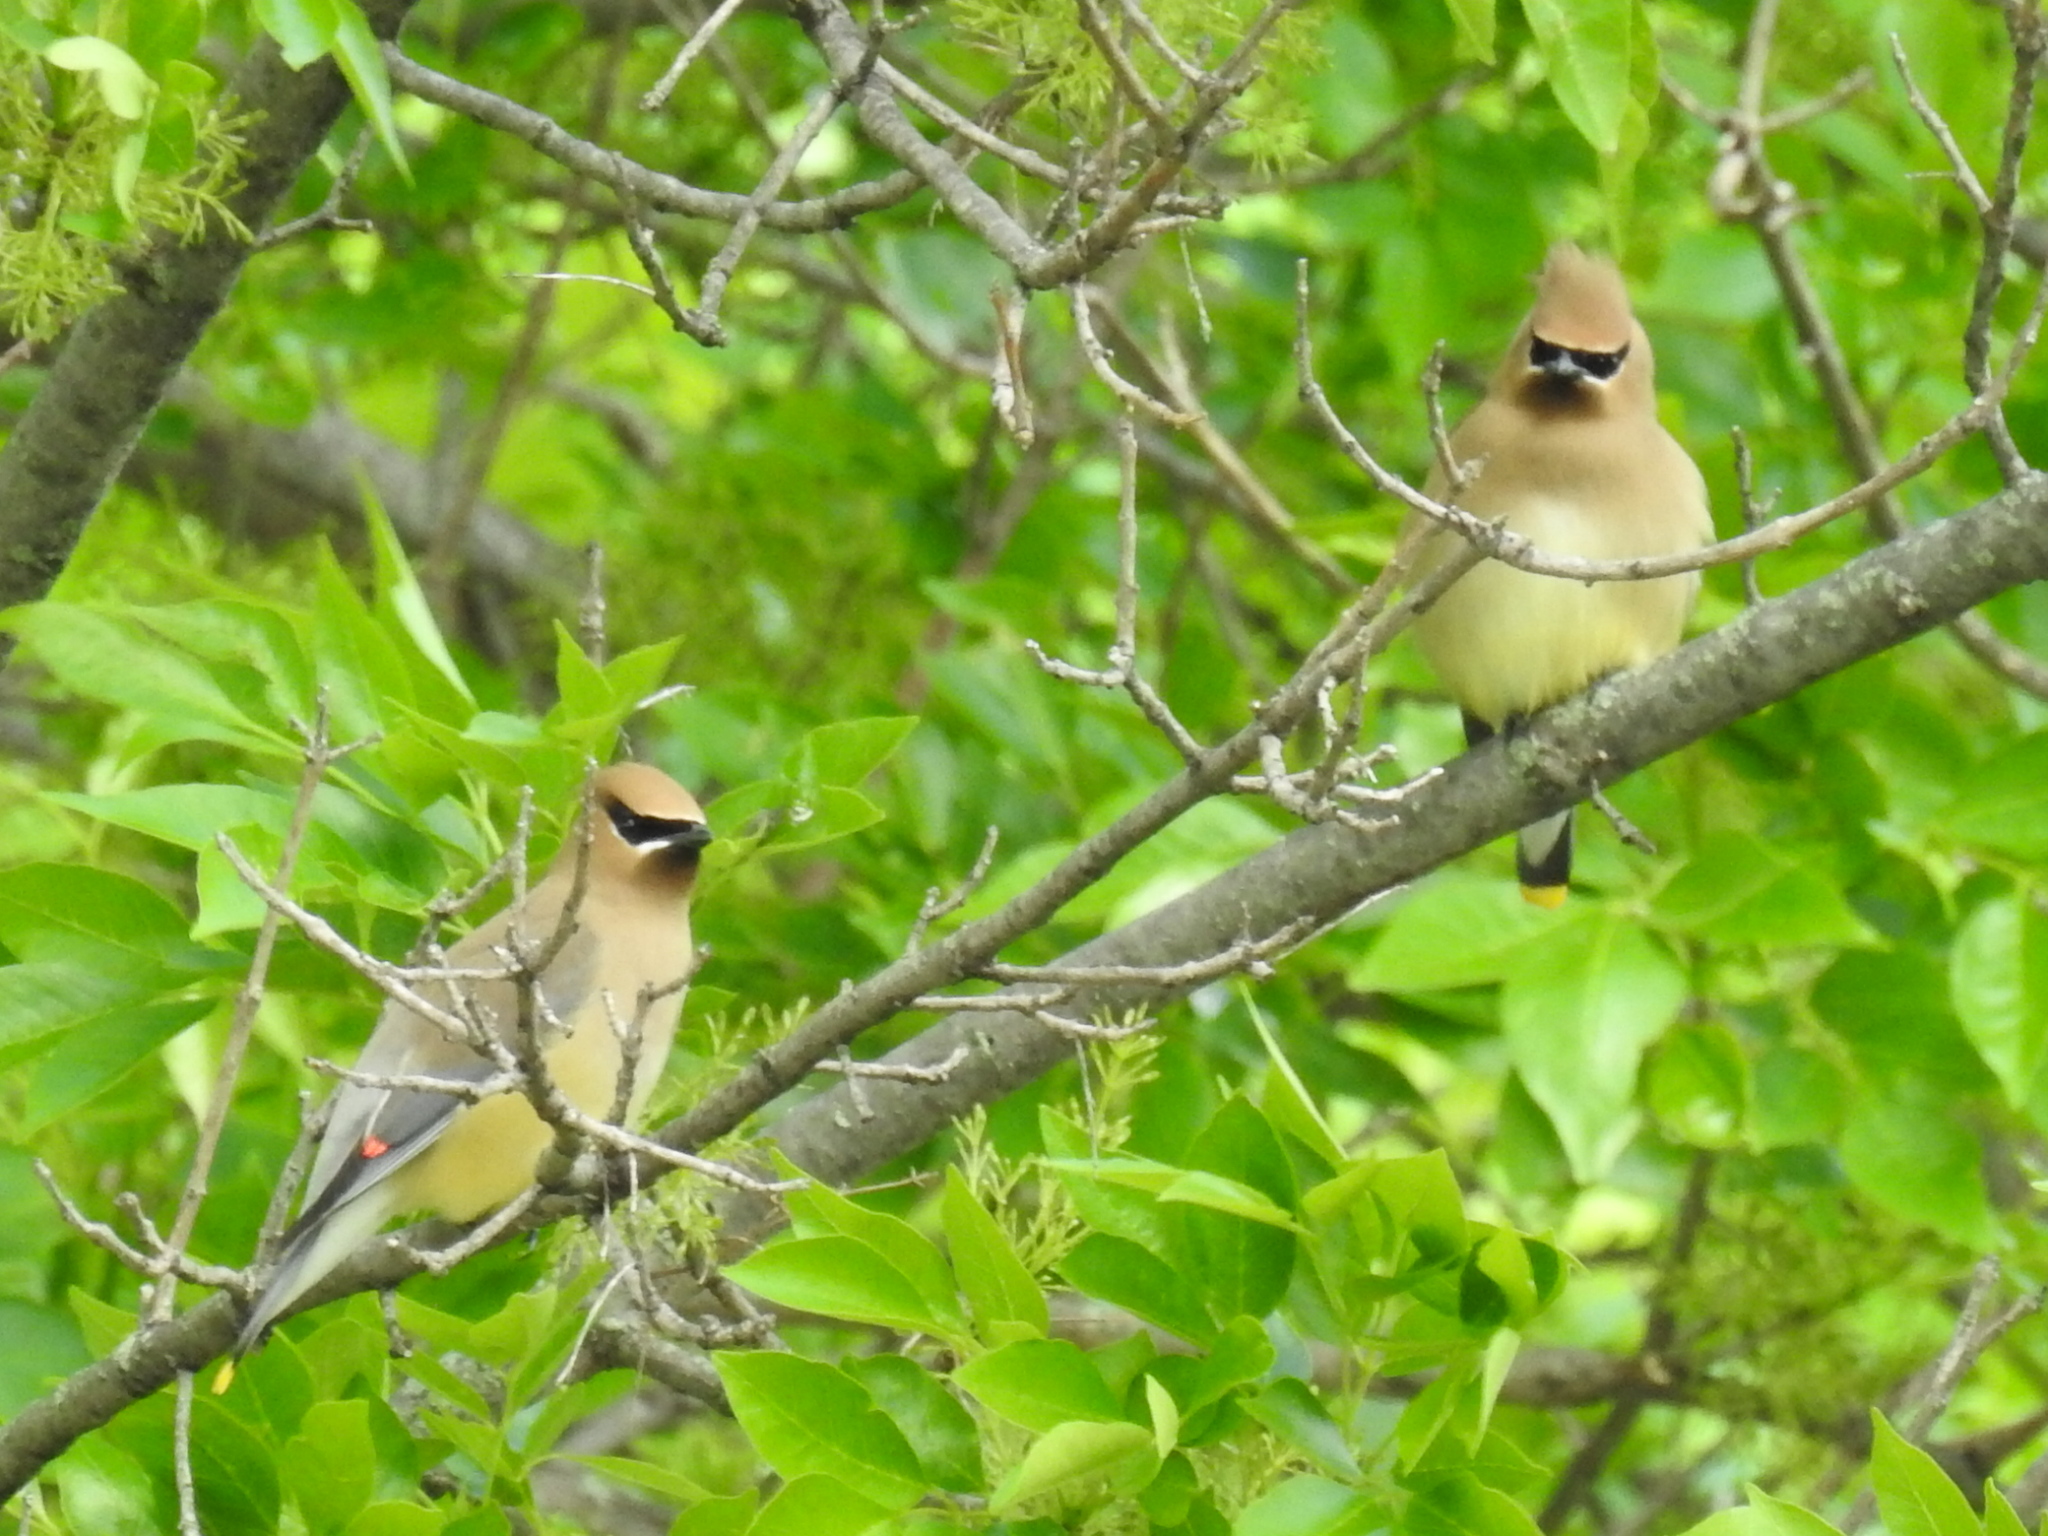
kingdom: Animalia
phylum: Chordata
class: Aves
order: Passeriformes
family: Bombycillidae
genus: Bombycilla
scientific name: Bombycilla cedrorum
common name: Cedar waxwing
